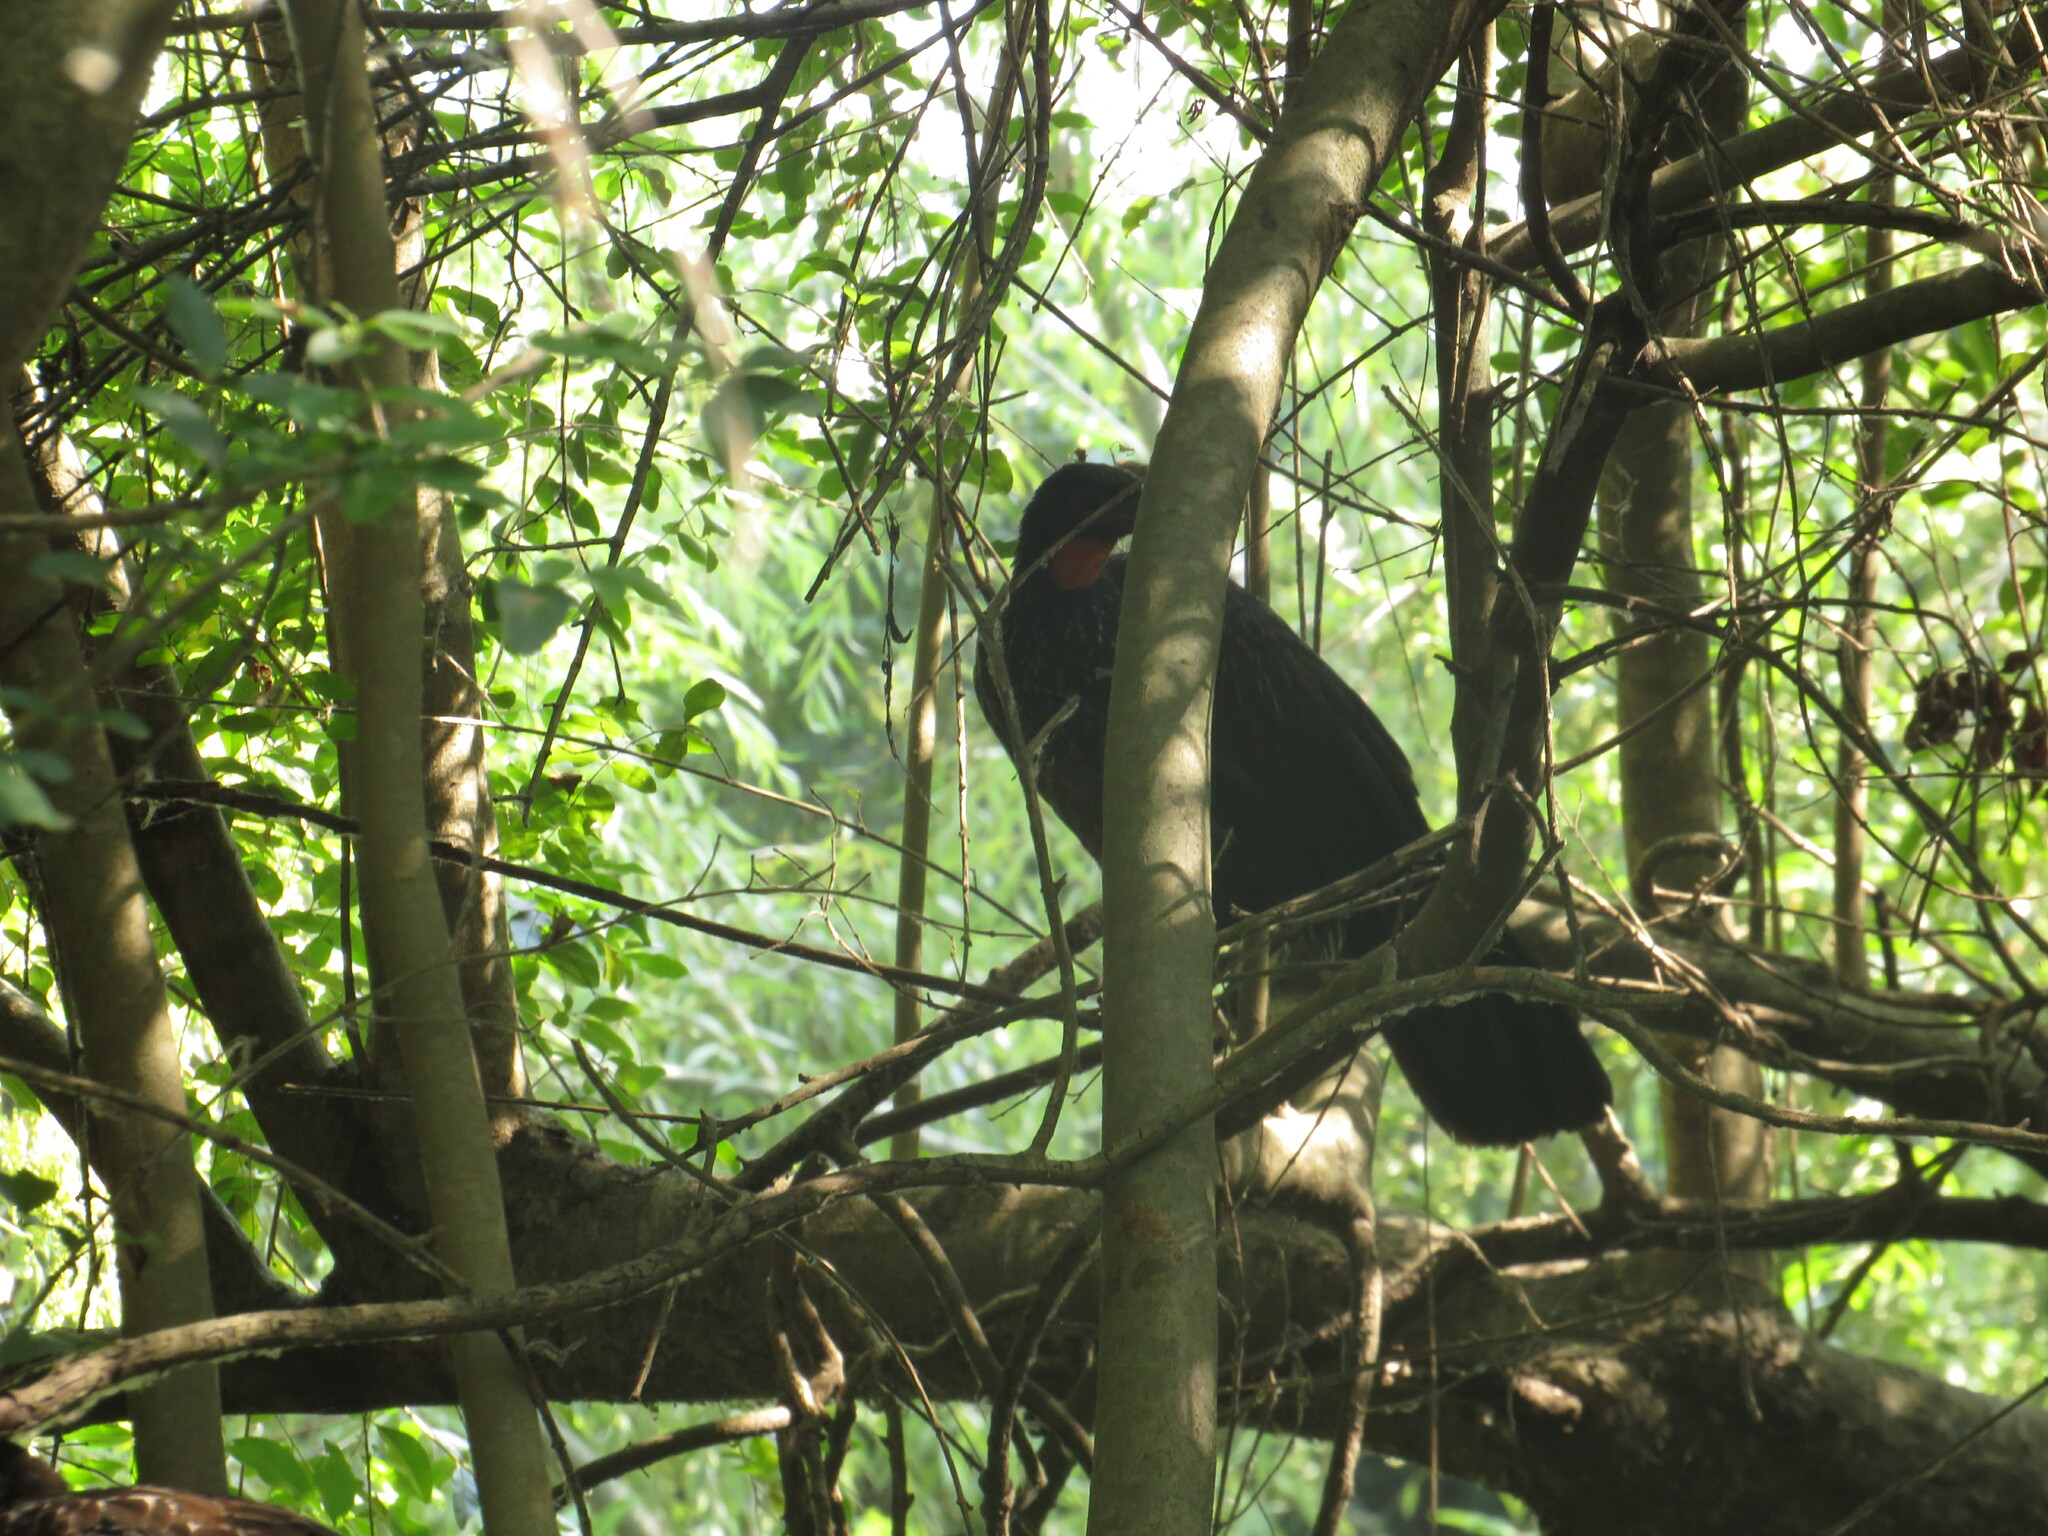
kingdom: Animalia
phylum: Chordata
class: Aves
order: Galliformes
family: Cracidae
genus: Penelope
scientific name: Penelope obscura
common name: Dusky-legged guan
